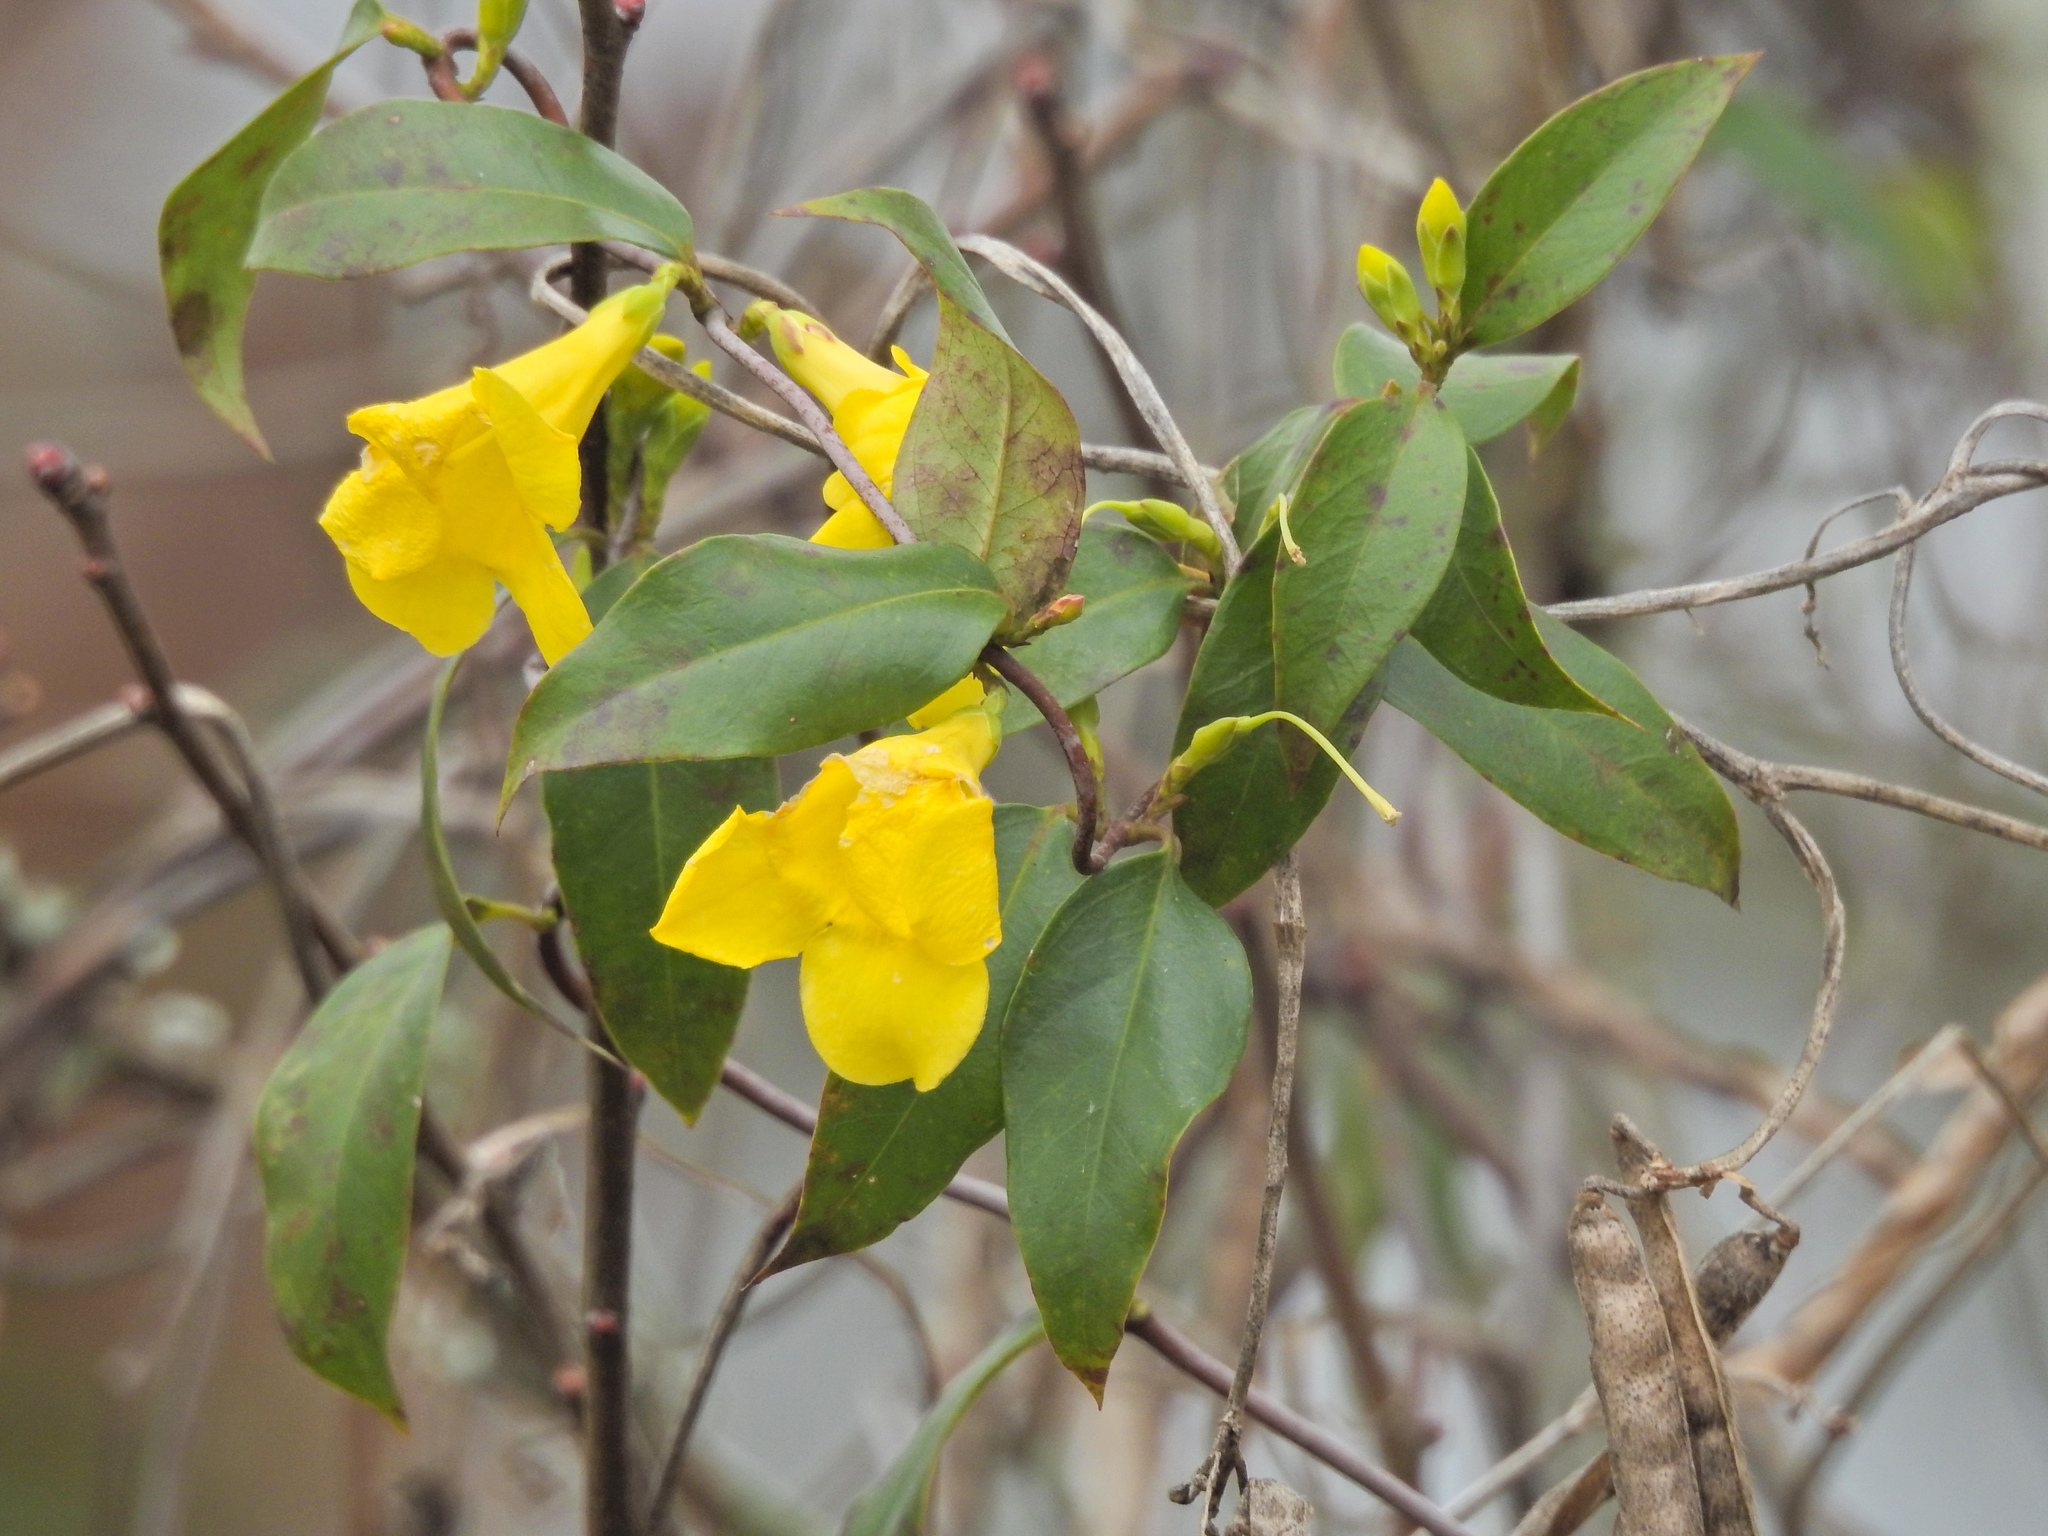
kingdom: Plantae
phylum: Tracheophyta
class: Magnoliopsida
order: Gentianales
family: Gelsemiaceae
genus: Gelsemium
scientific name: Gelsemium sempervirens
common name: Carolina-jasmine
